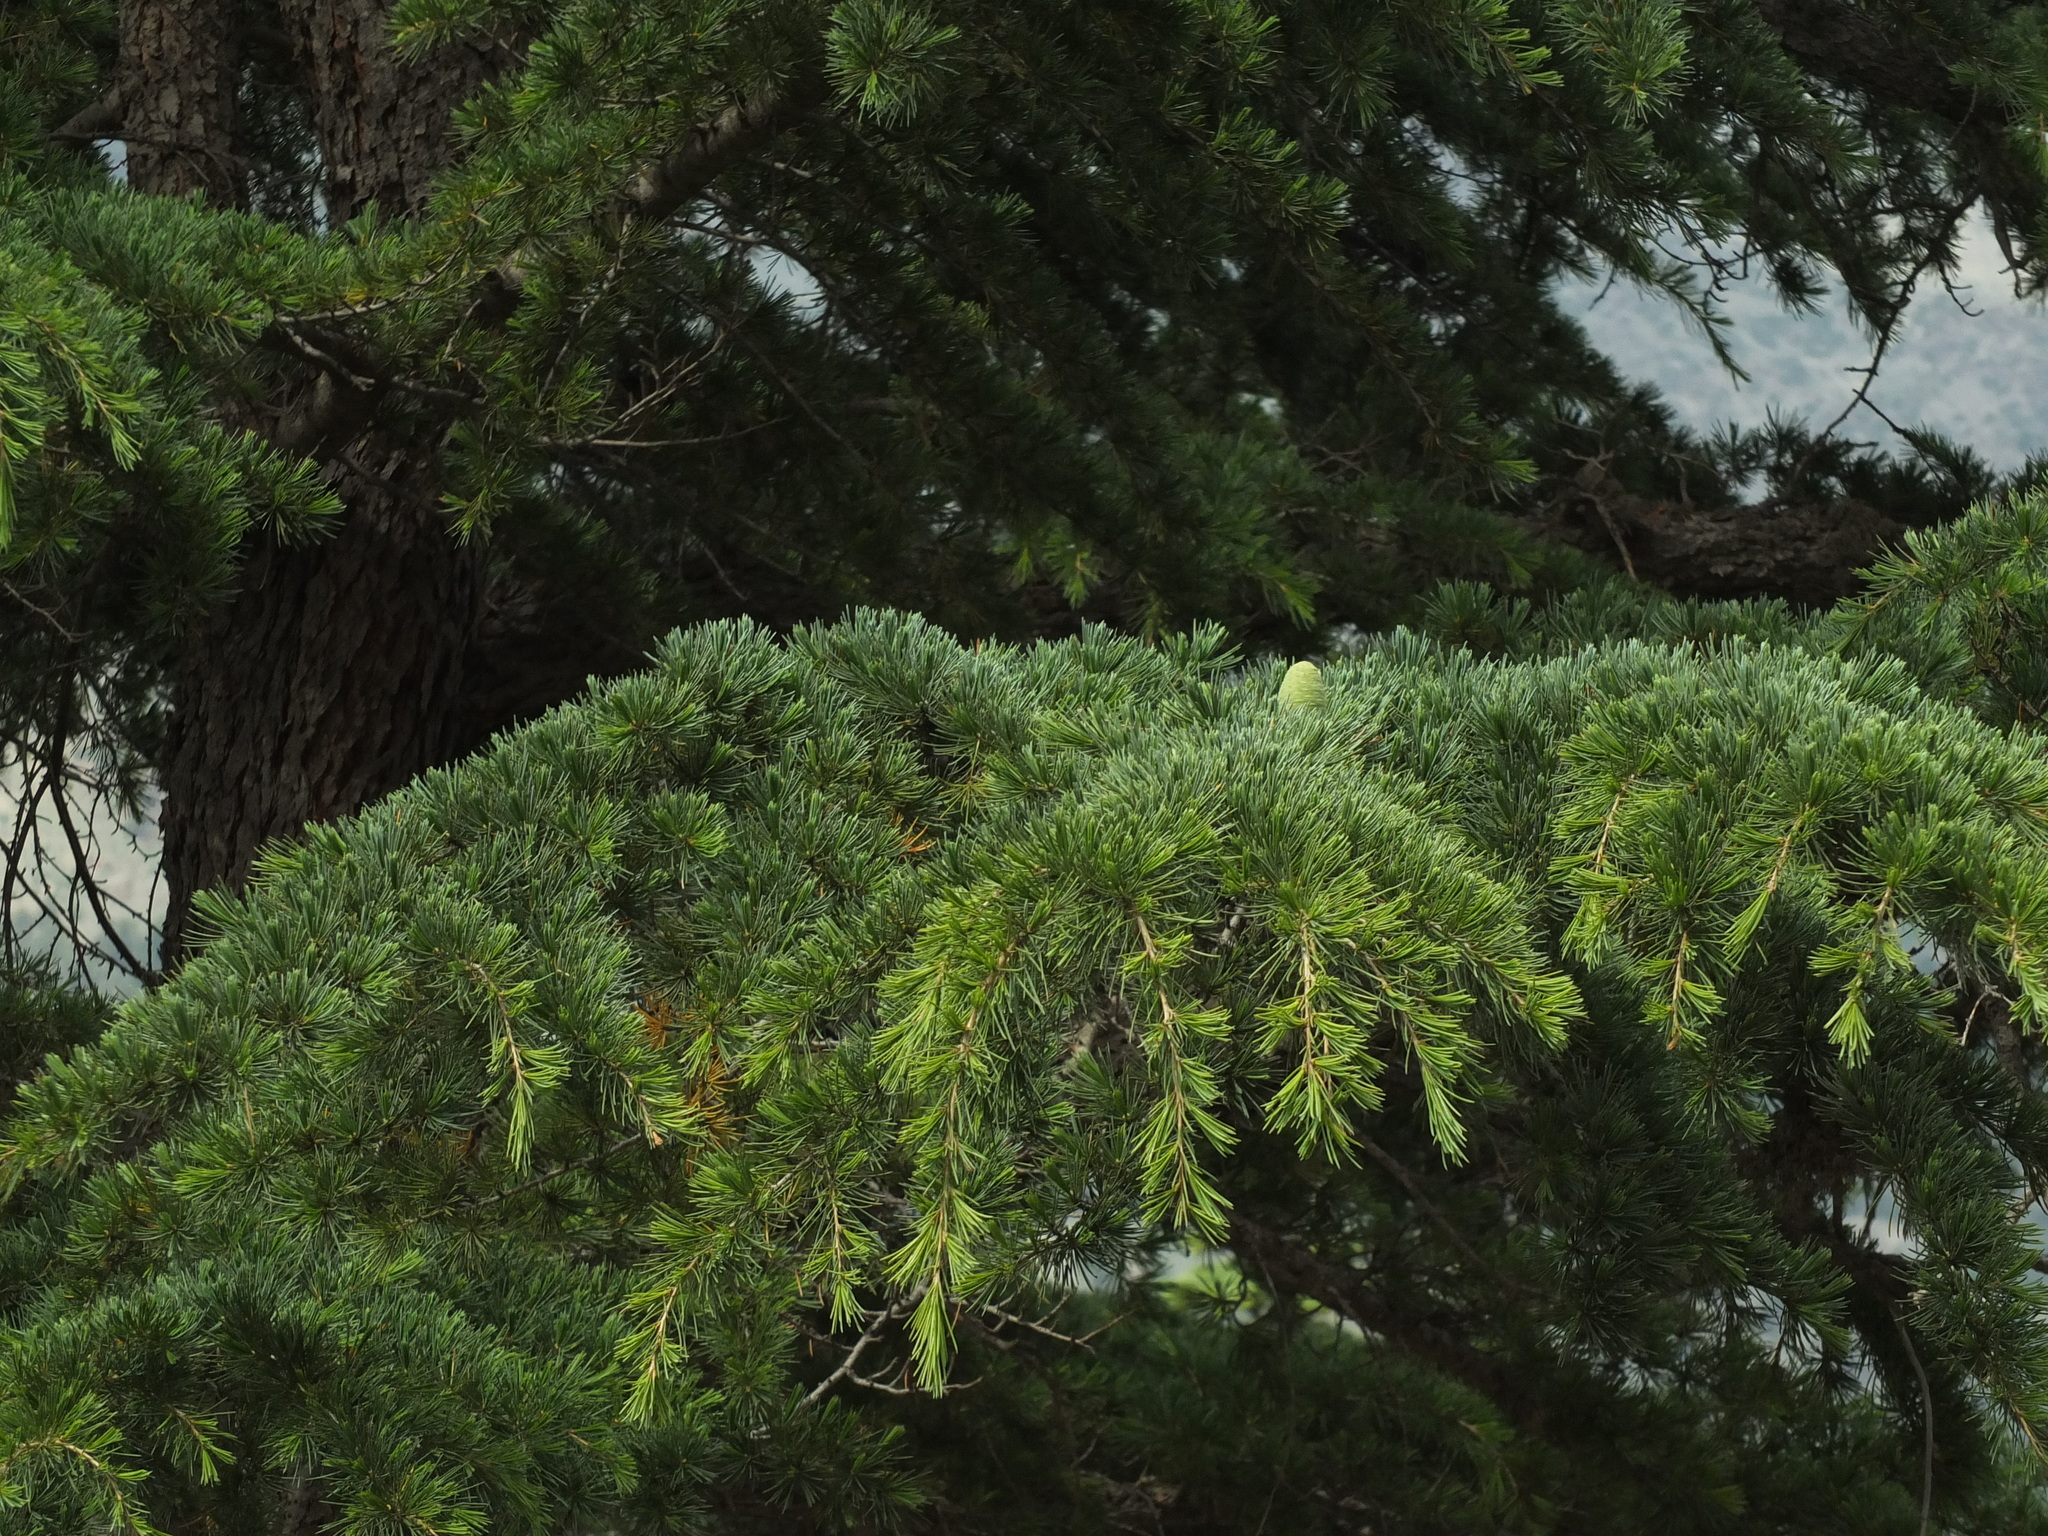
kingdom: Plantae
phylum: Tracheophyta
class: Pinopsida
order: Pinales
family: Pinaceae
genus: Cedrus
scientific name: Cedrus deodara
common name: Deodar
